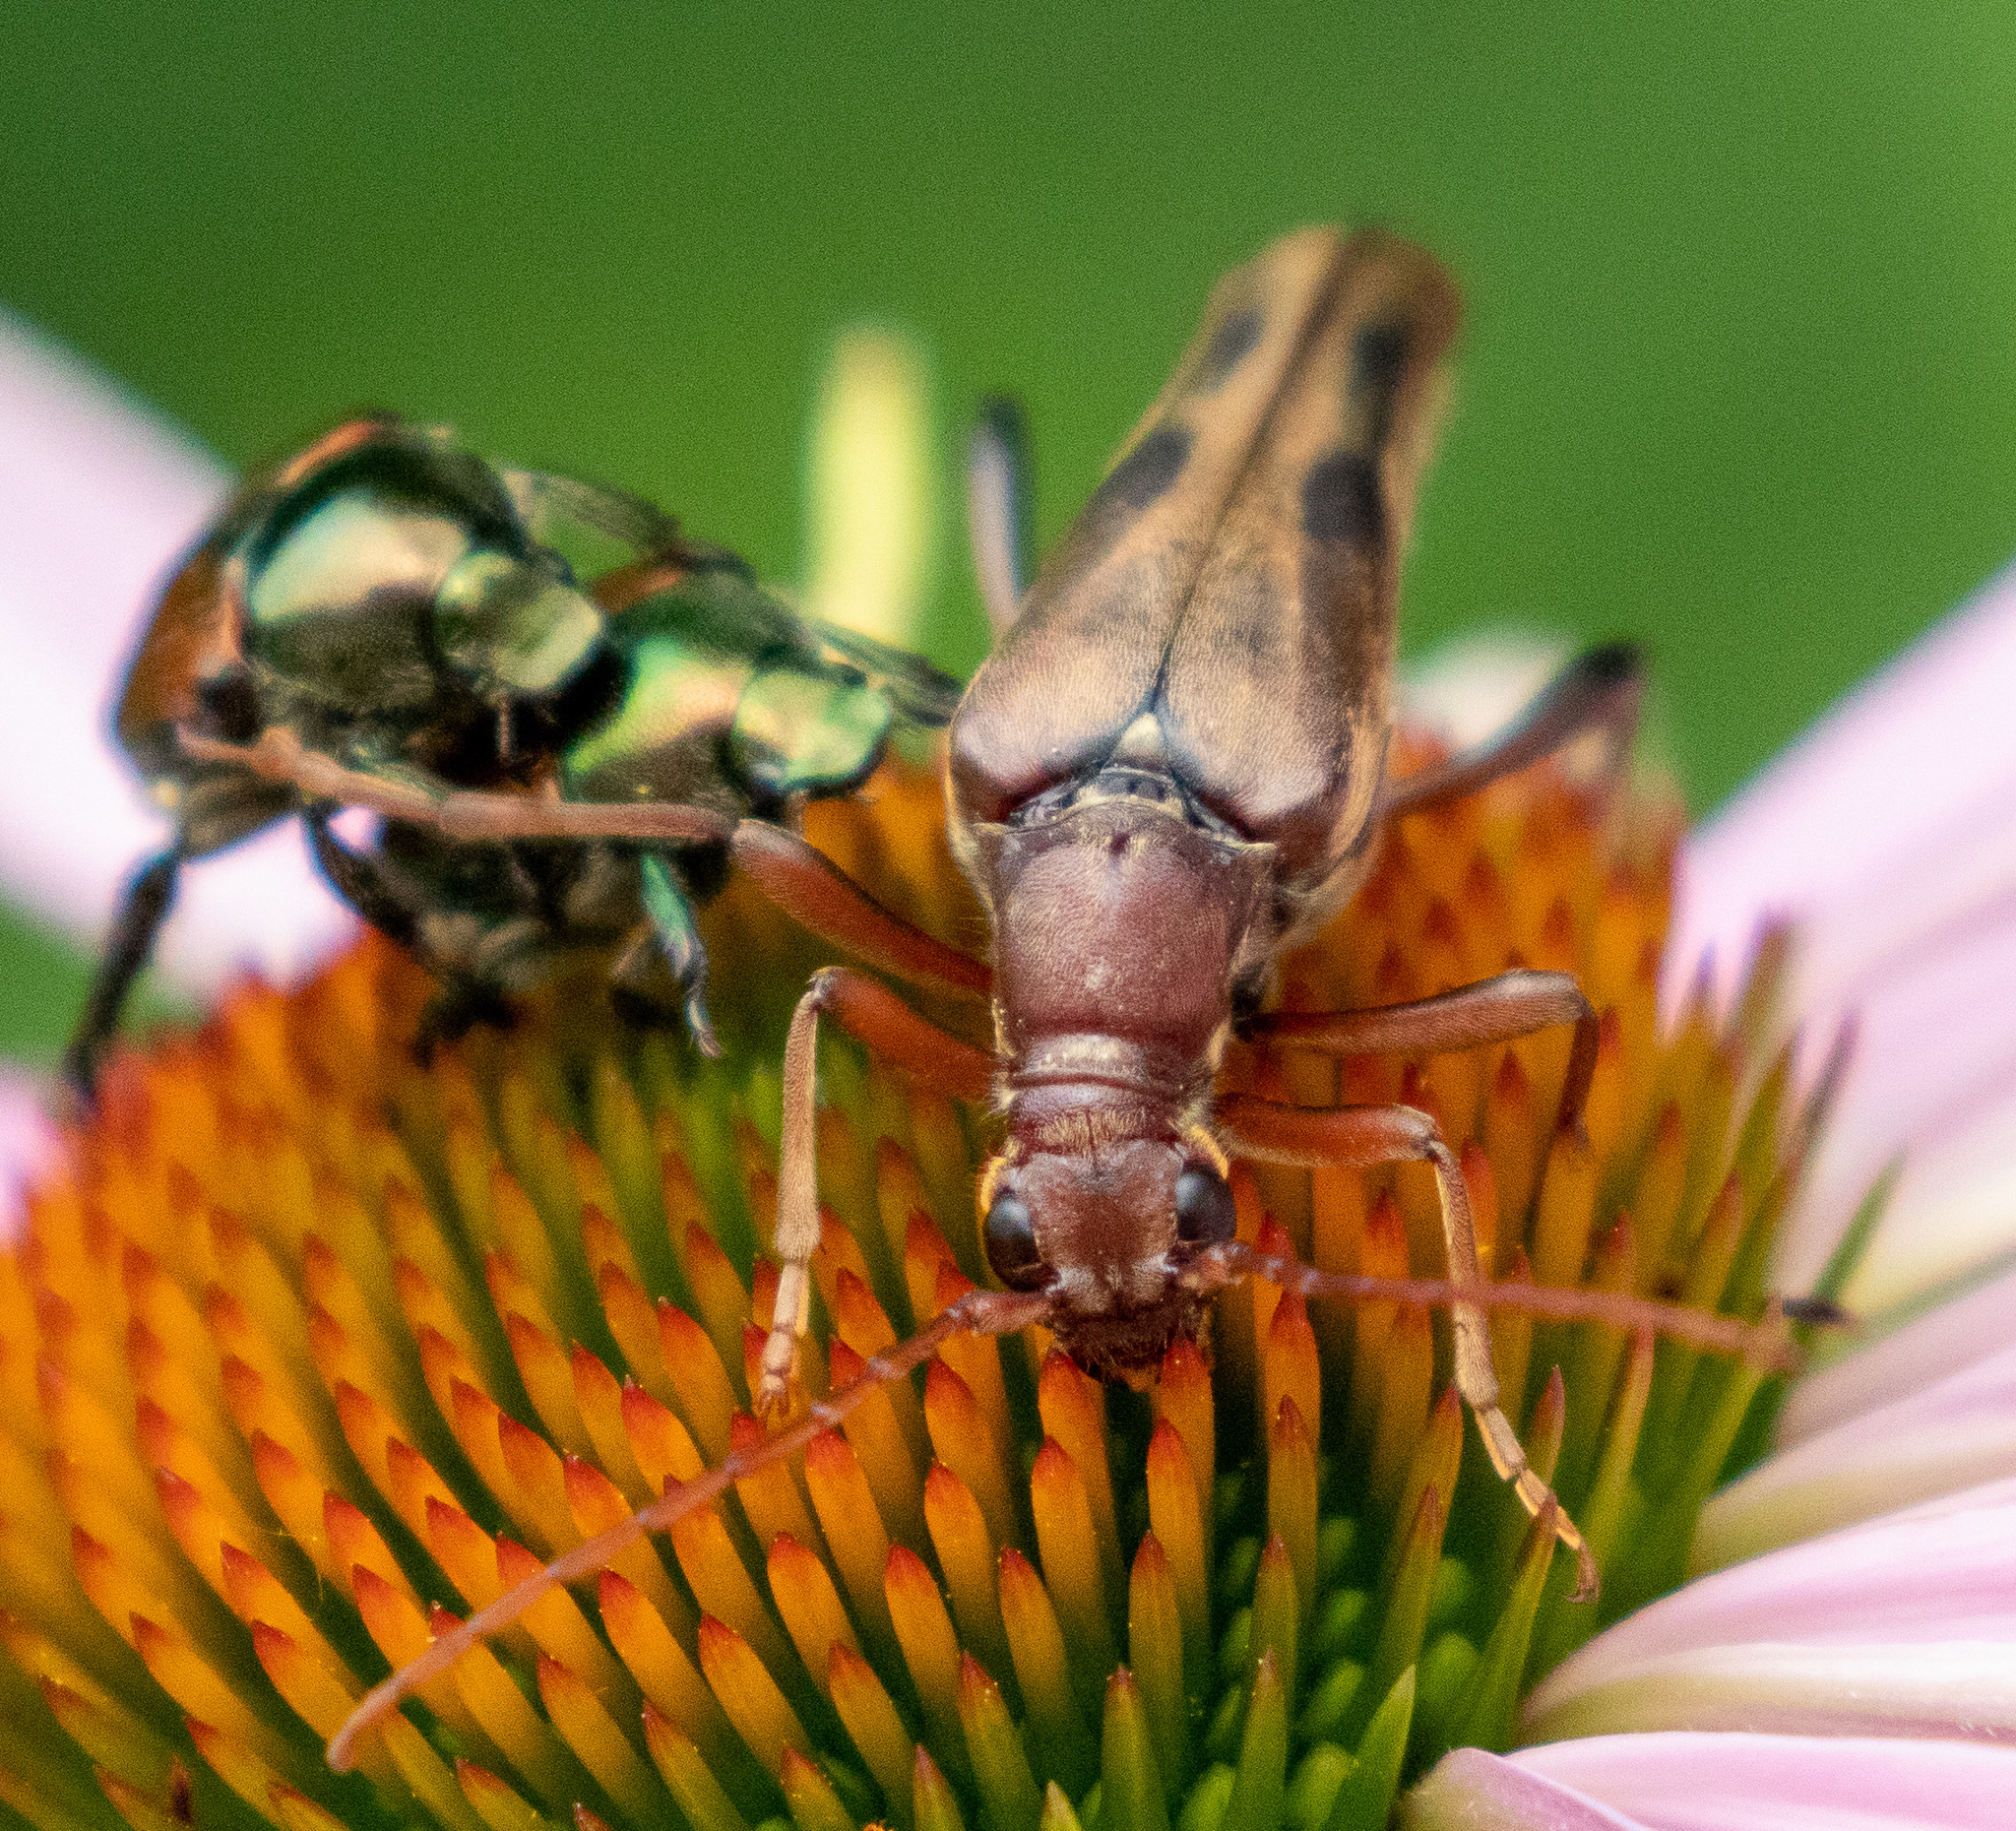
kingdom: Animalia
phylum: Arthropoda
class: Insecta
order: Coleoptera
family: Cerambycidae
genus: Bellamira
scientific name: Bellamira scalaris
